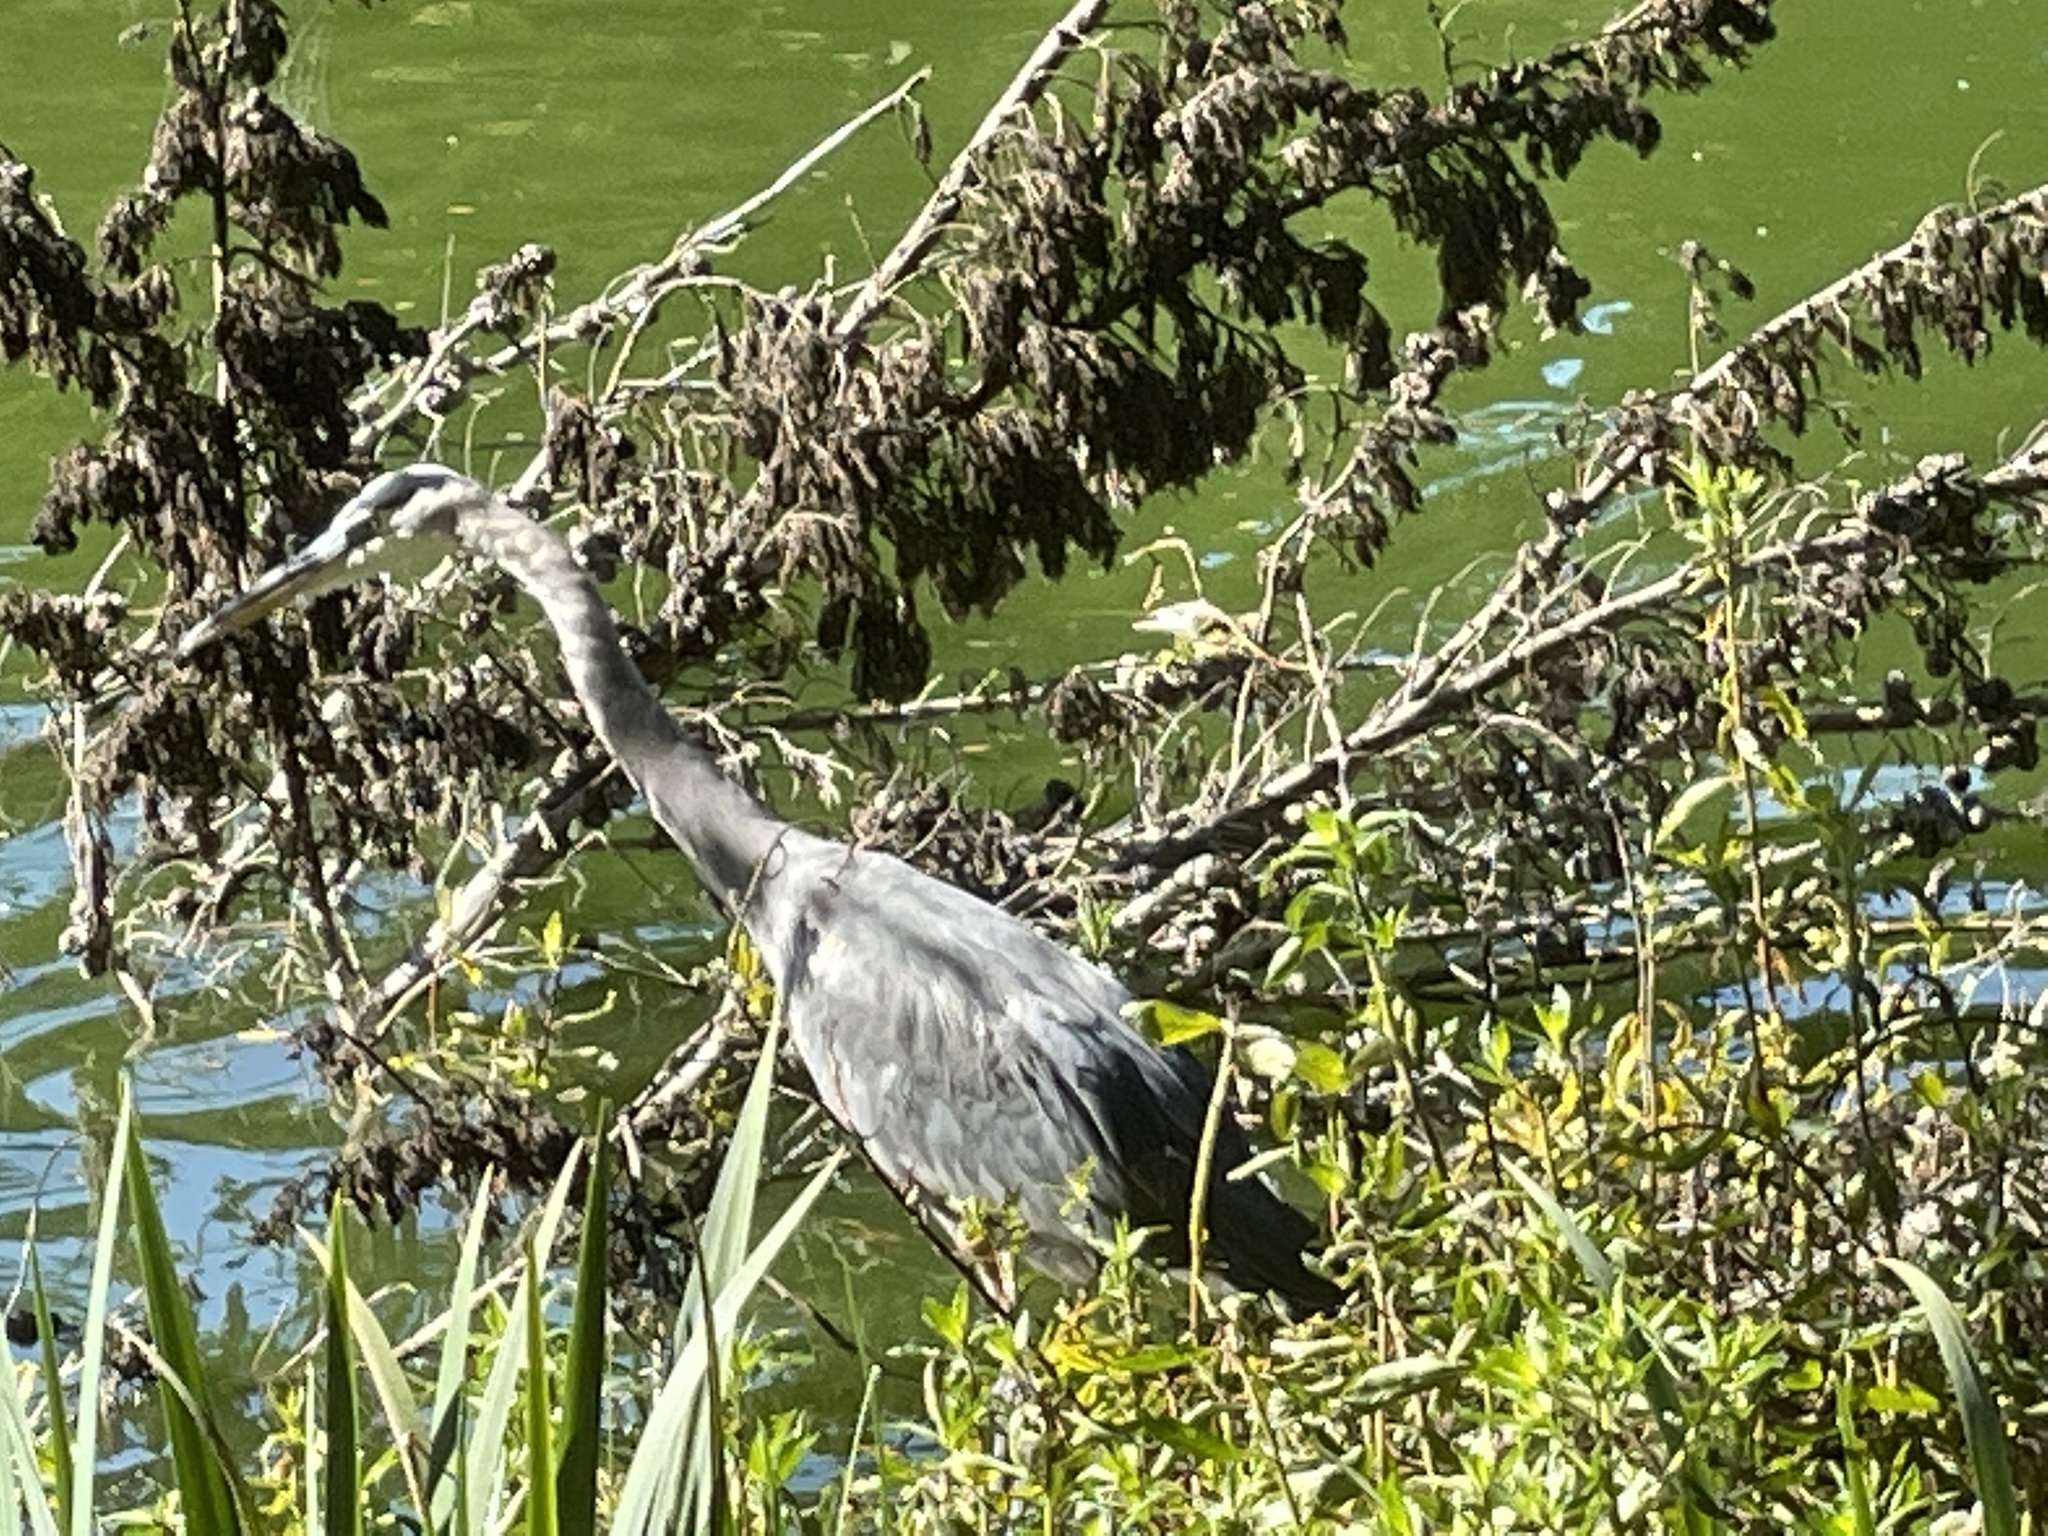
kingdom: Animalia
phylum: Chordata
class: Aves
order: Pelecaniformes
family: Ardeidae
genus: Ardea
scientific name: Ardea herodias
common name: Great blue heron
